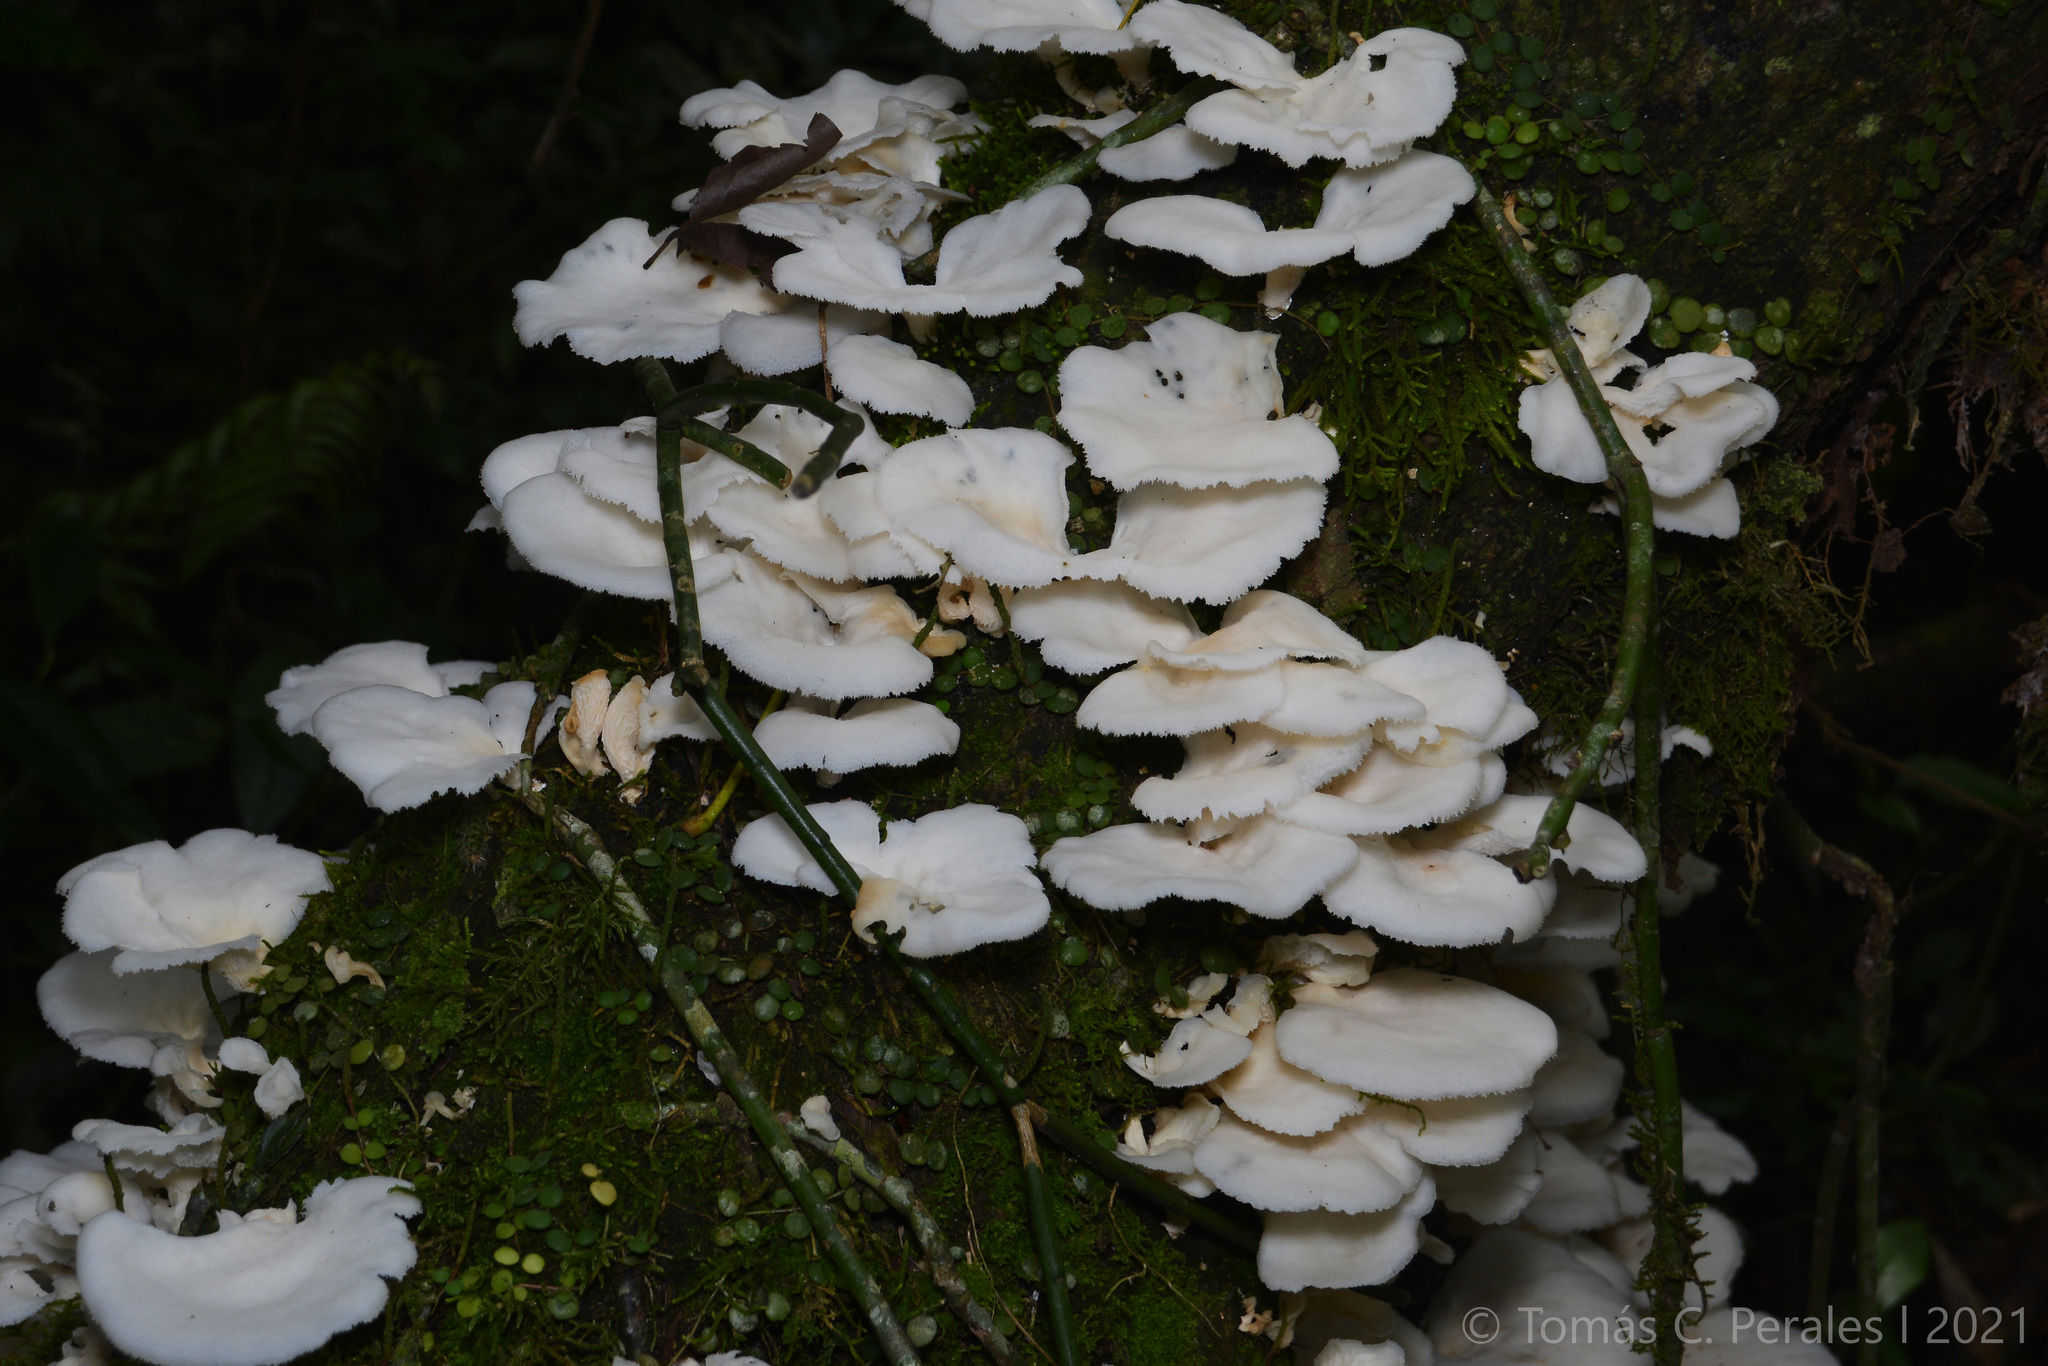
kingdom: Fungi
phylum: Basidiomycota
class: Agaricomycetes
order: Polyporales
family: Polyporaceae
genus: Favolus
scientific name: Favolus tenuiculus
